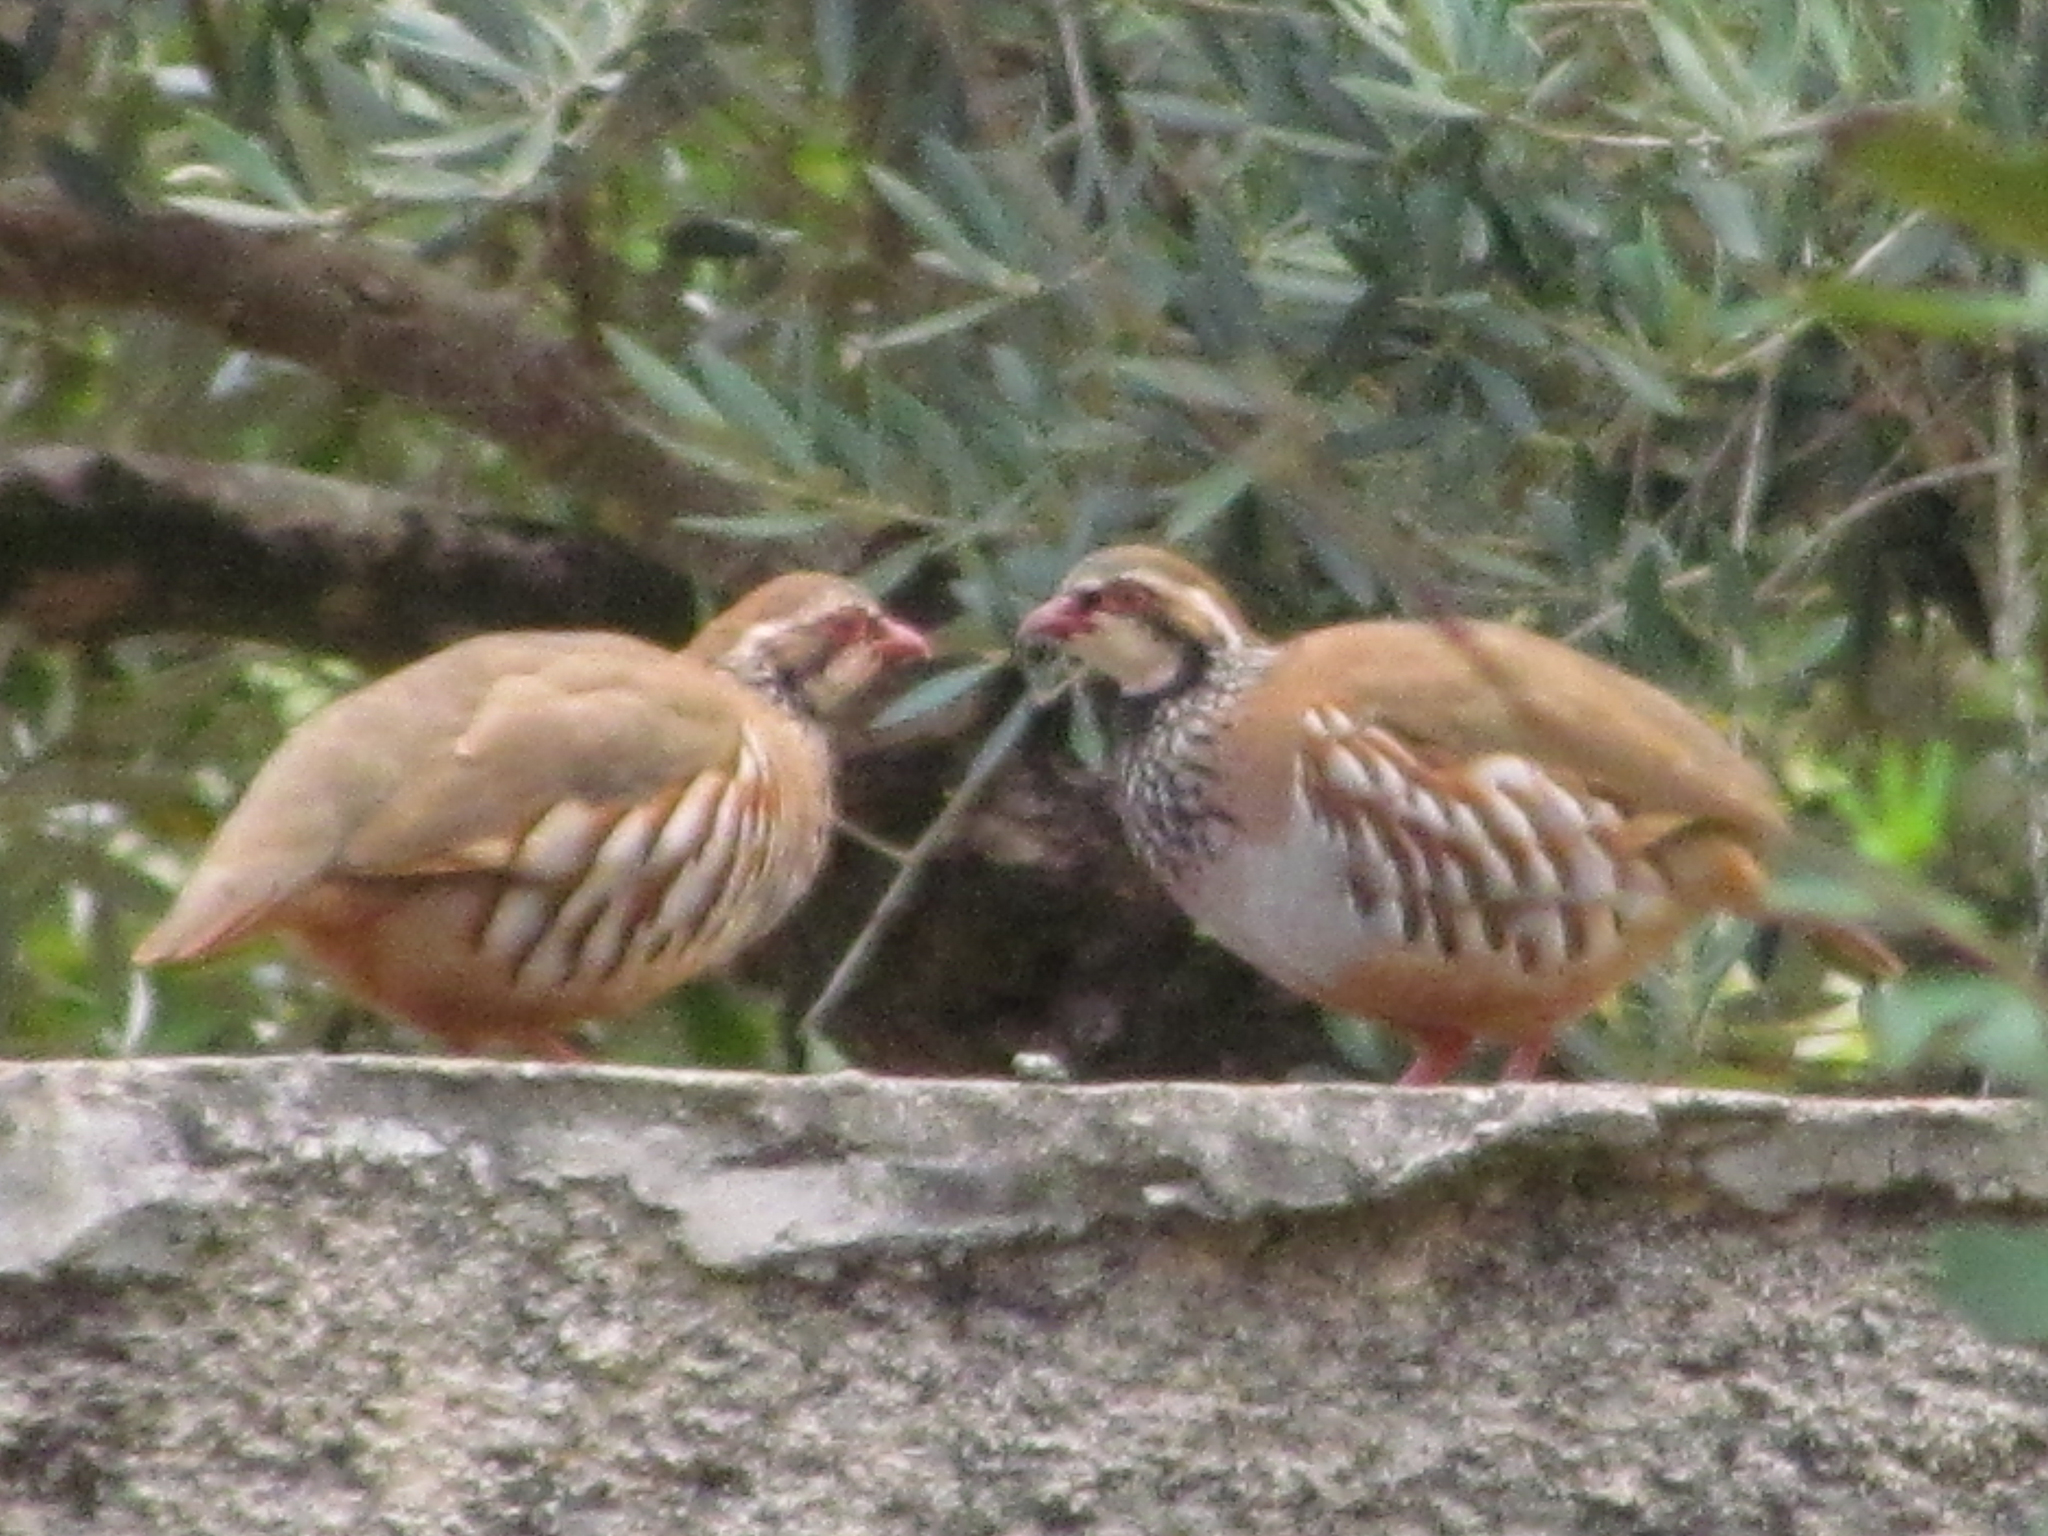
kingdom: Animalia
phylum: Chordata
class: Aves
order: Galliformes
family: Phasianidae
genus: Alectoris
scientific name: Alectoris rufa
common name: Red-legged partridge
